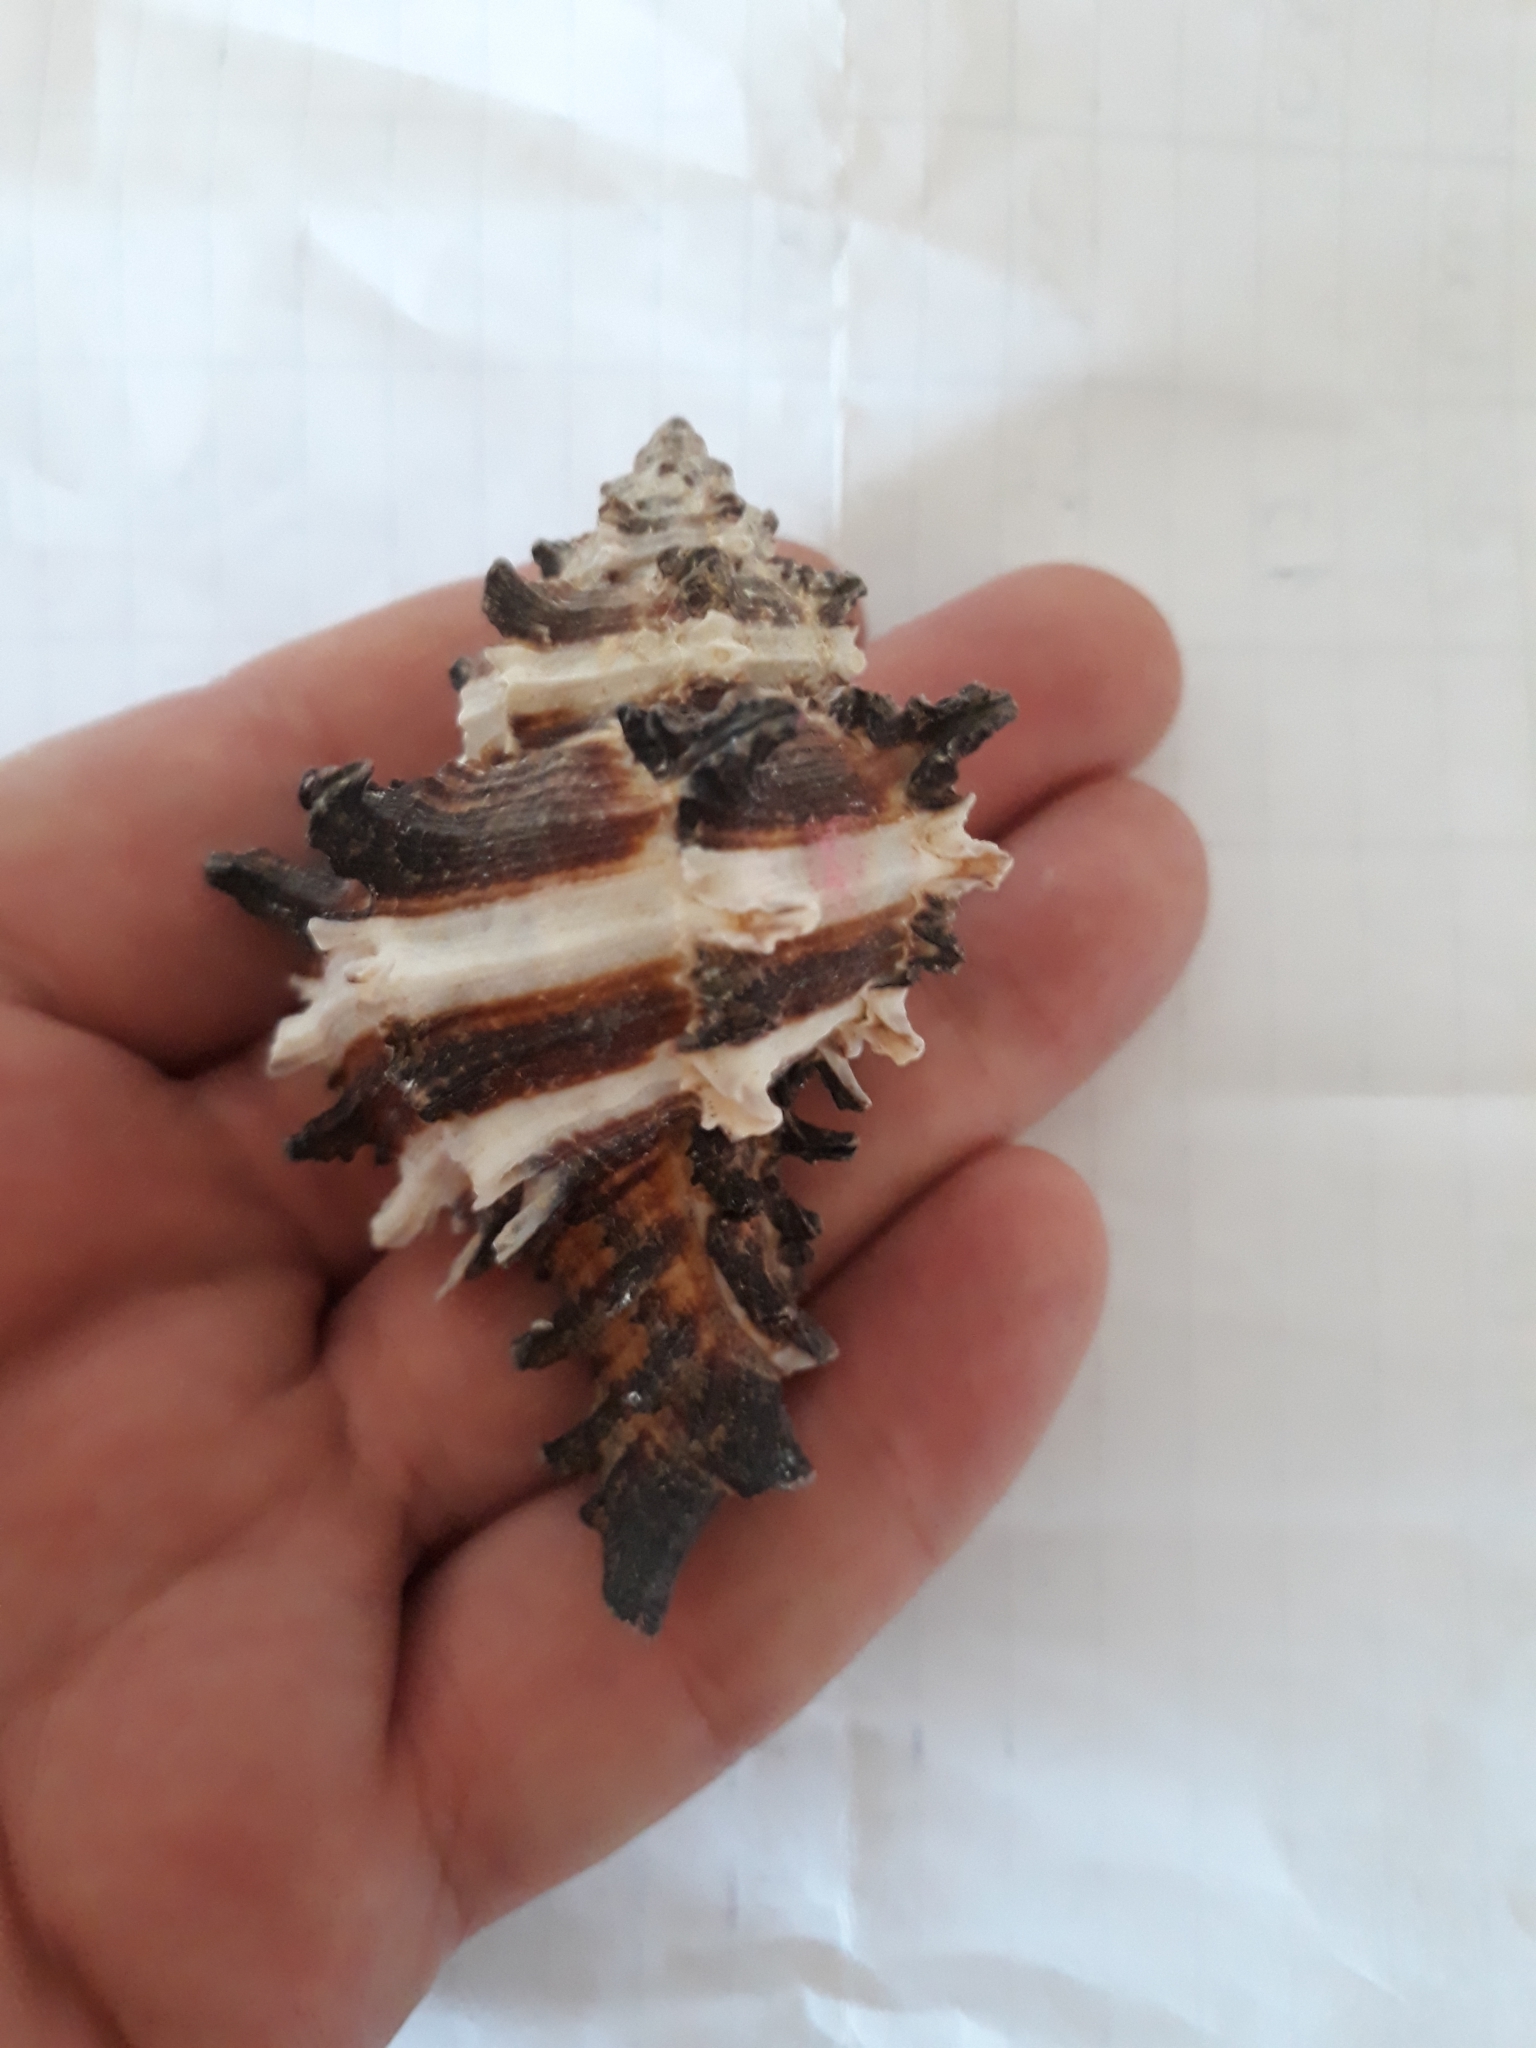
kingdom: Animalia
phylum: Mollusca
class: Gastropoda
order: Neogastropoda
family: Muricidae
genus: Hexaplex
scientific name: Hexaplex cichoreum
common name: Endive murex
